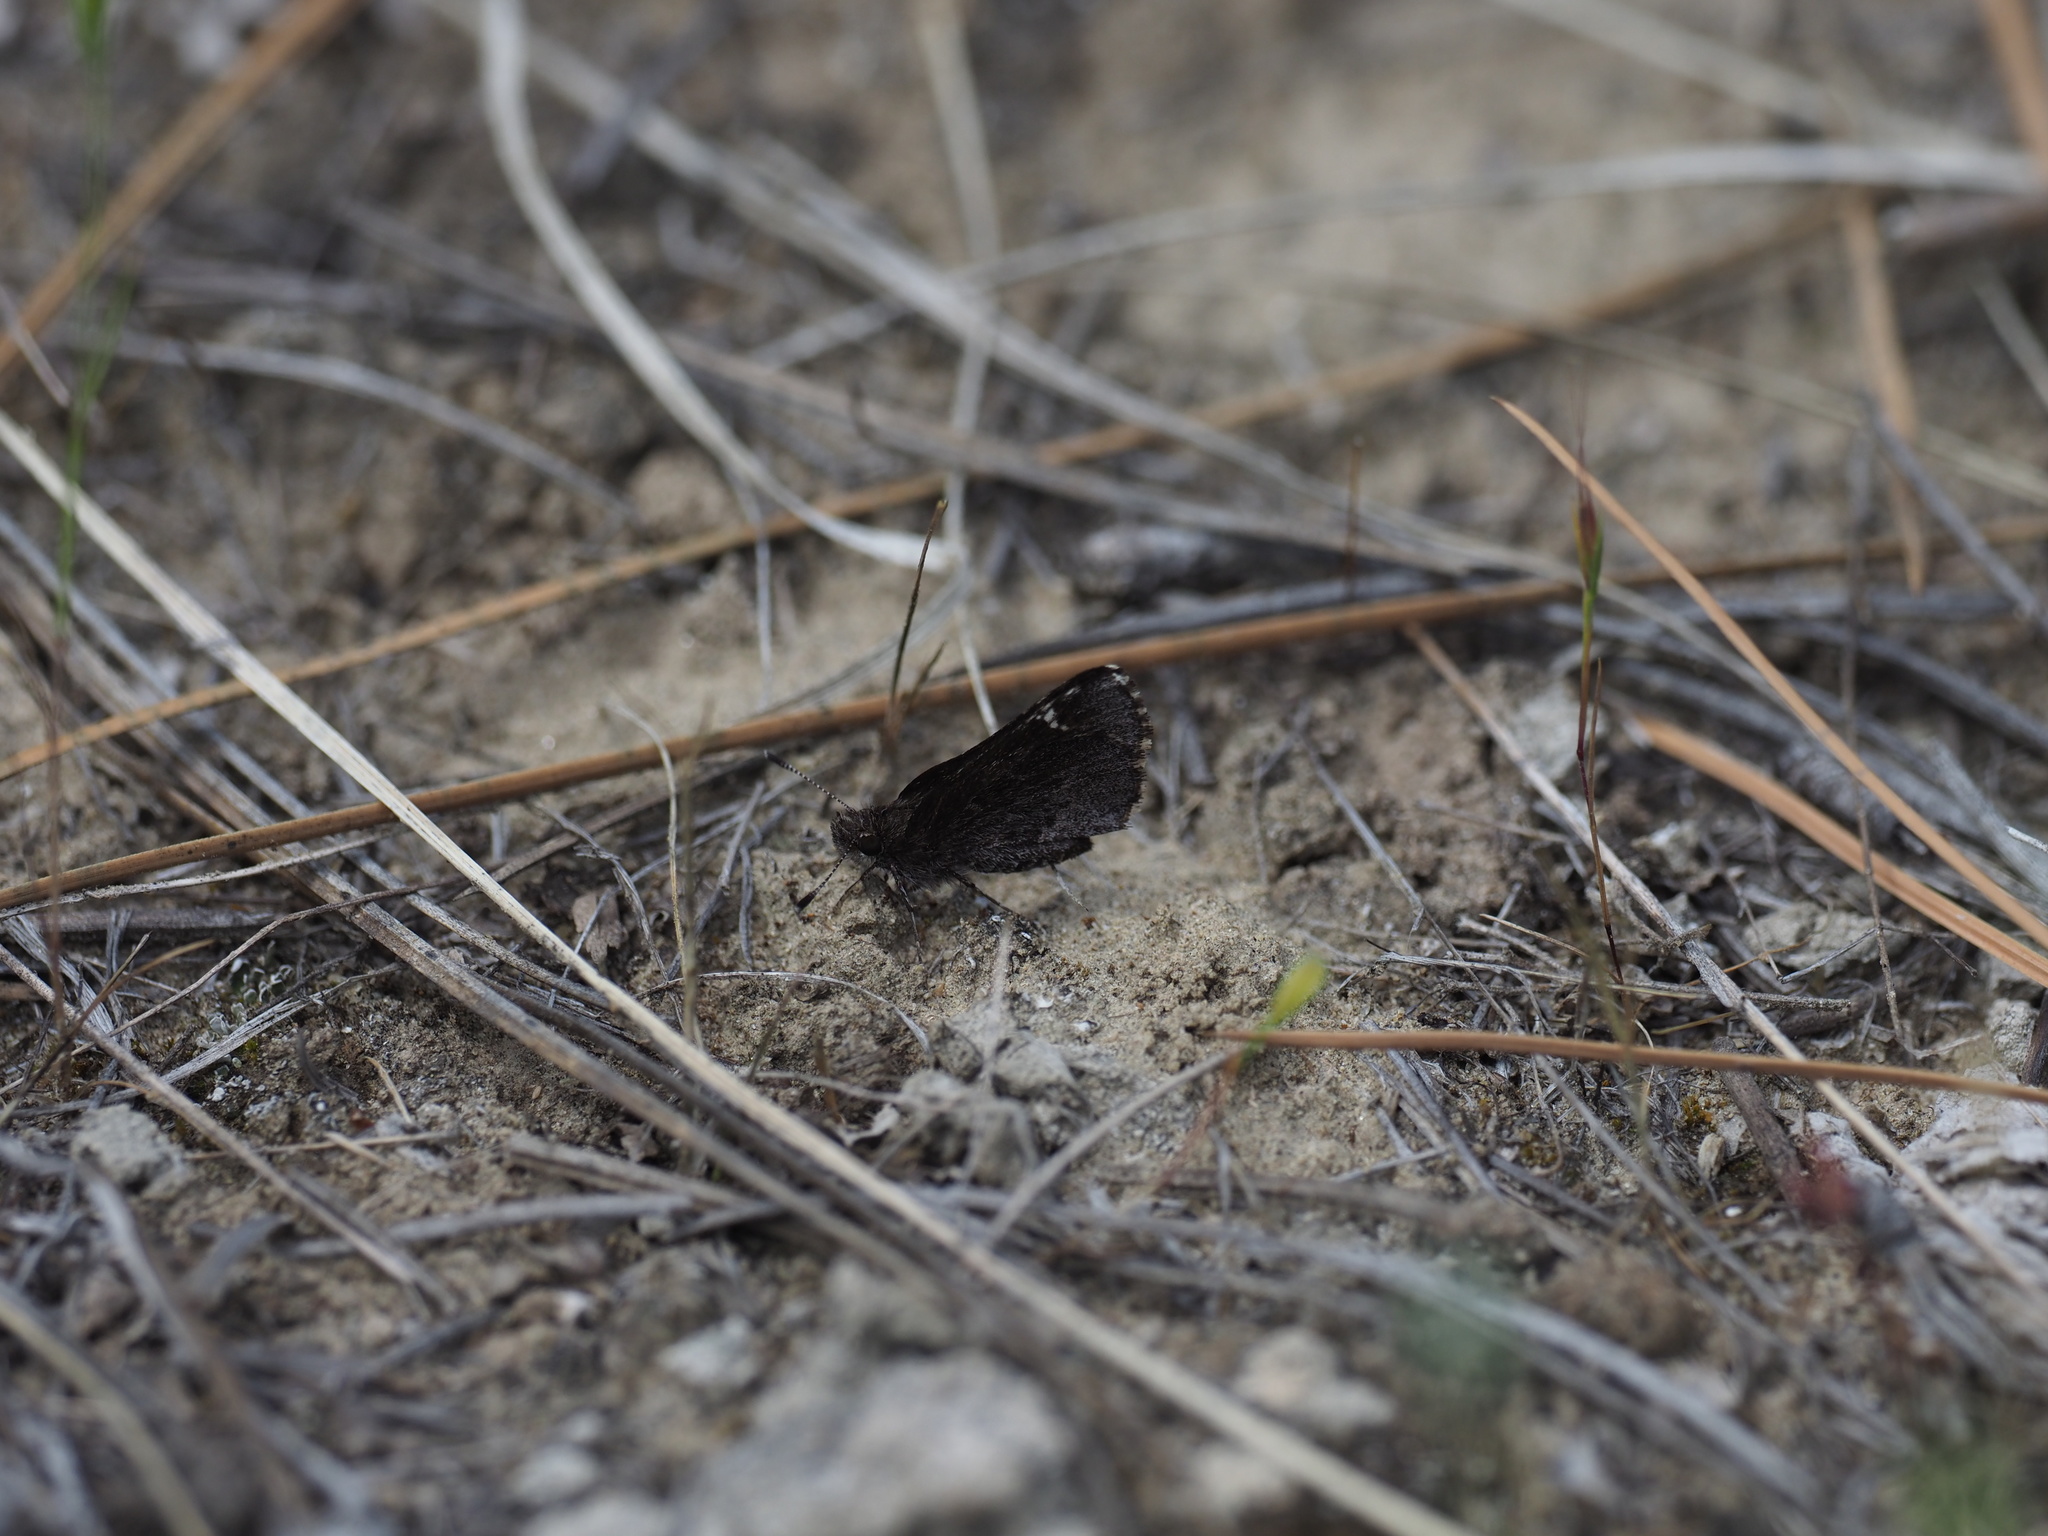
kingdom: Animalia
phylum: Arthropoda
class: Insecta
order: Lepidoptera
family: Hesperiidae
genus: Mastor
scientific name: Mastor vialis
